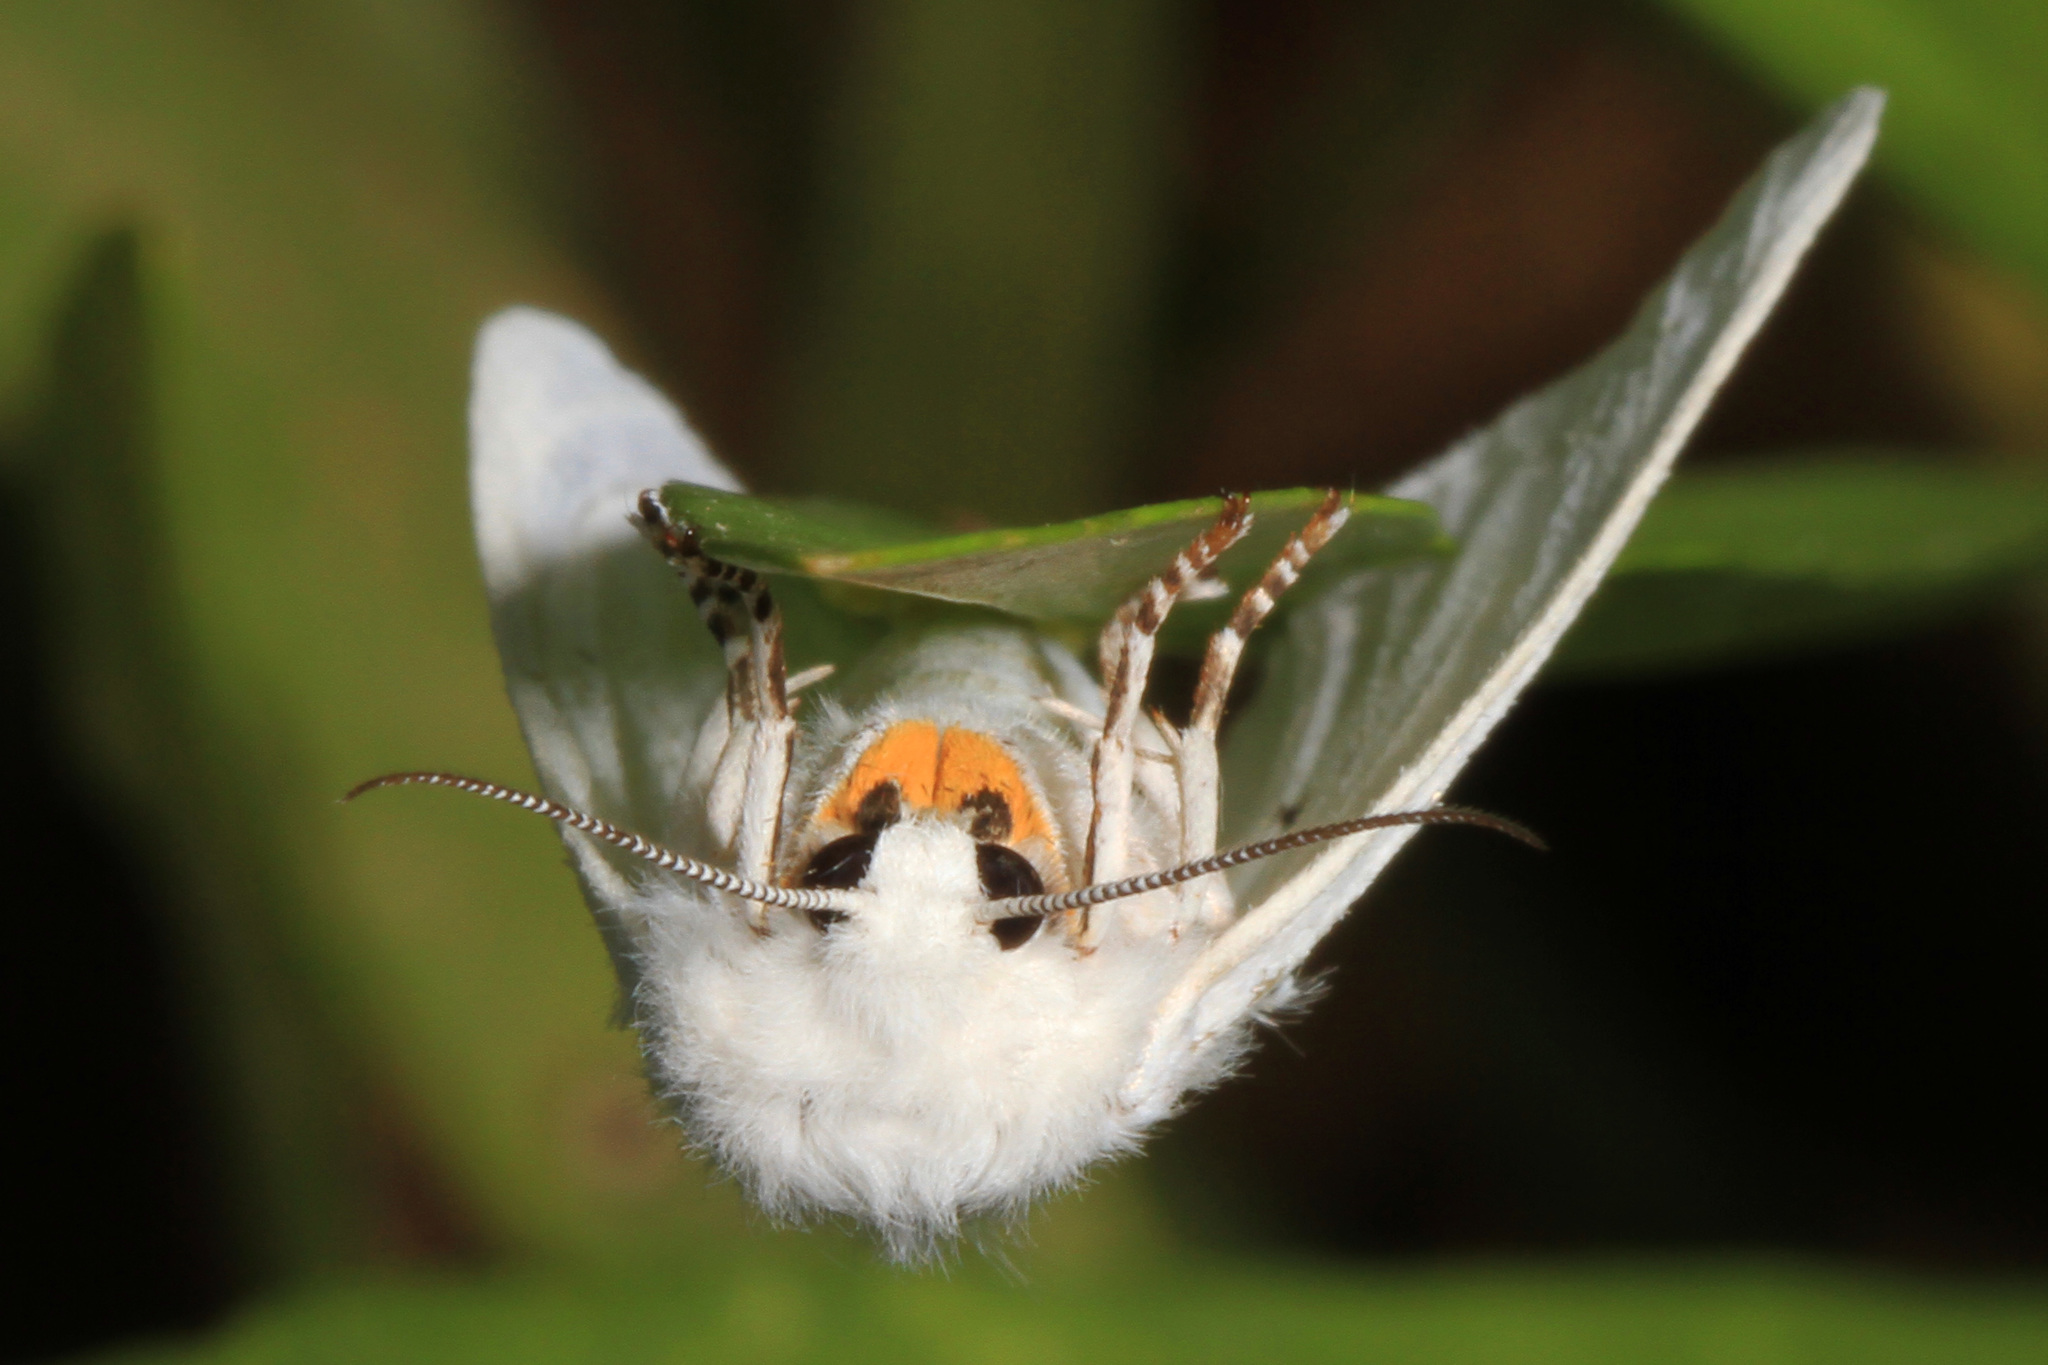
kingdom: Animalia
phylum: Arthropoda
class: Insecta
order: Lepidoptera
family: Erebidae
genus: Spilosoma
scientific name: Spilosoma virginica
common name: Virginia tiger moth
